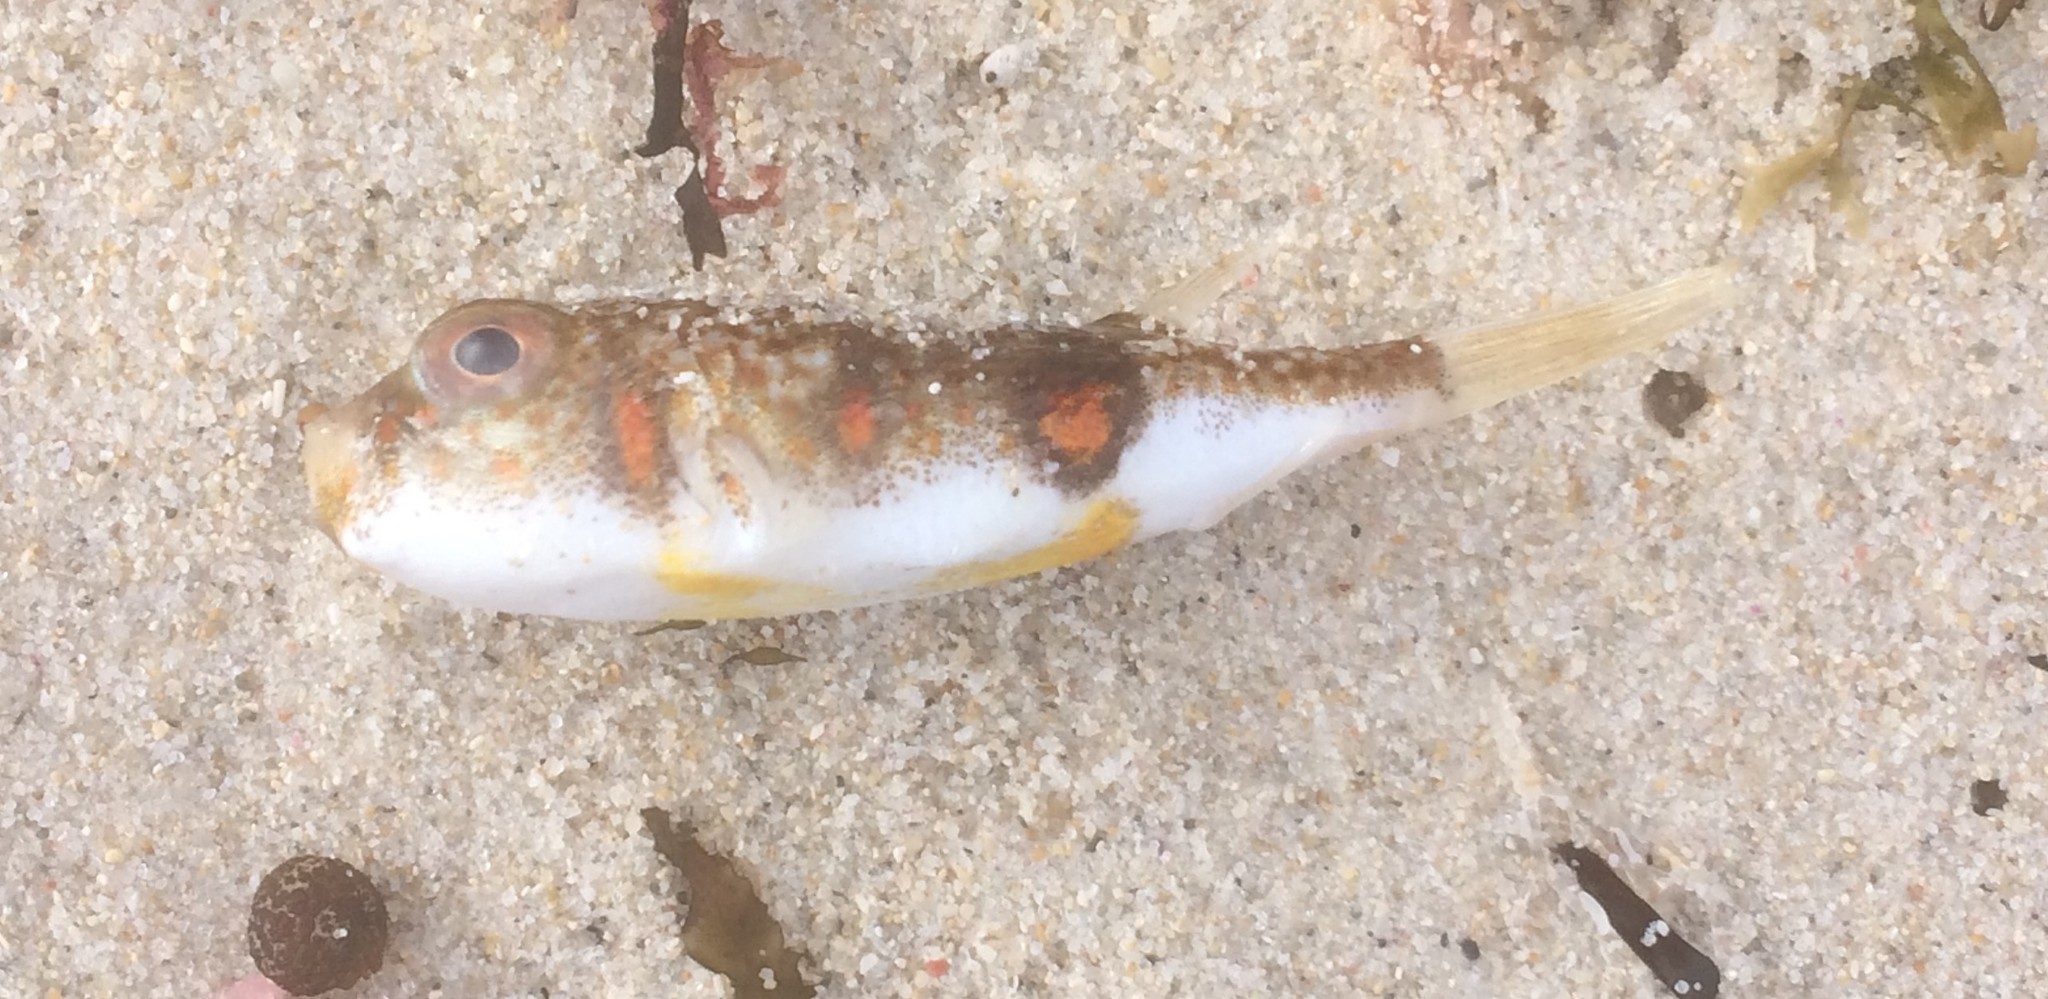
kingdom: Animalia
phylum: Chordata
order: Tetraodontiformes
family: Tetraodontidae
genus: Polyspina
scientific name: Polyspina piosae
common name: Orange-barred pufferfish
